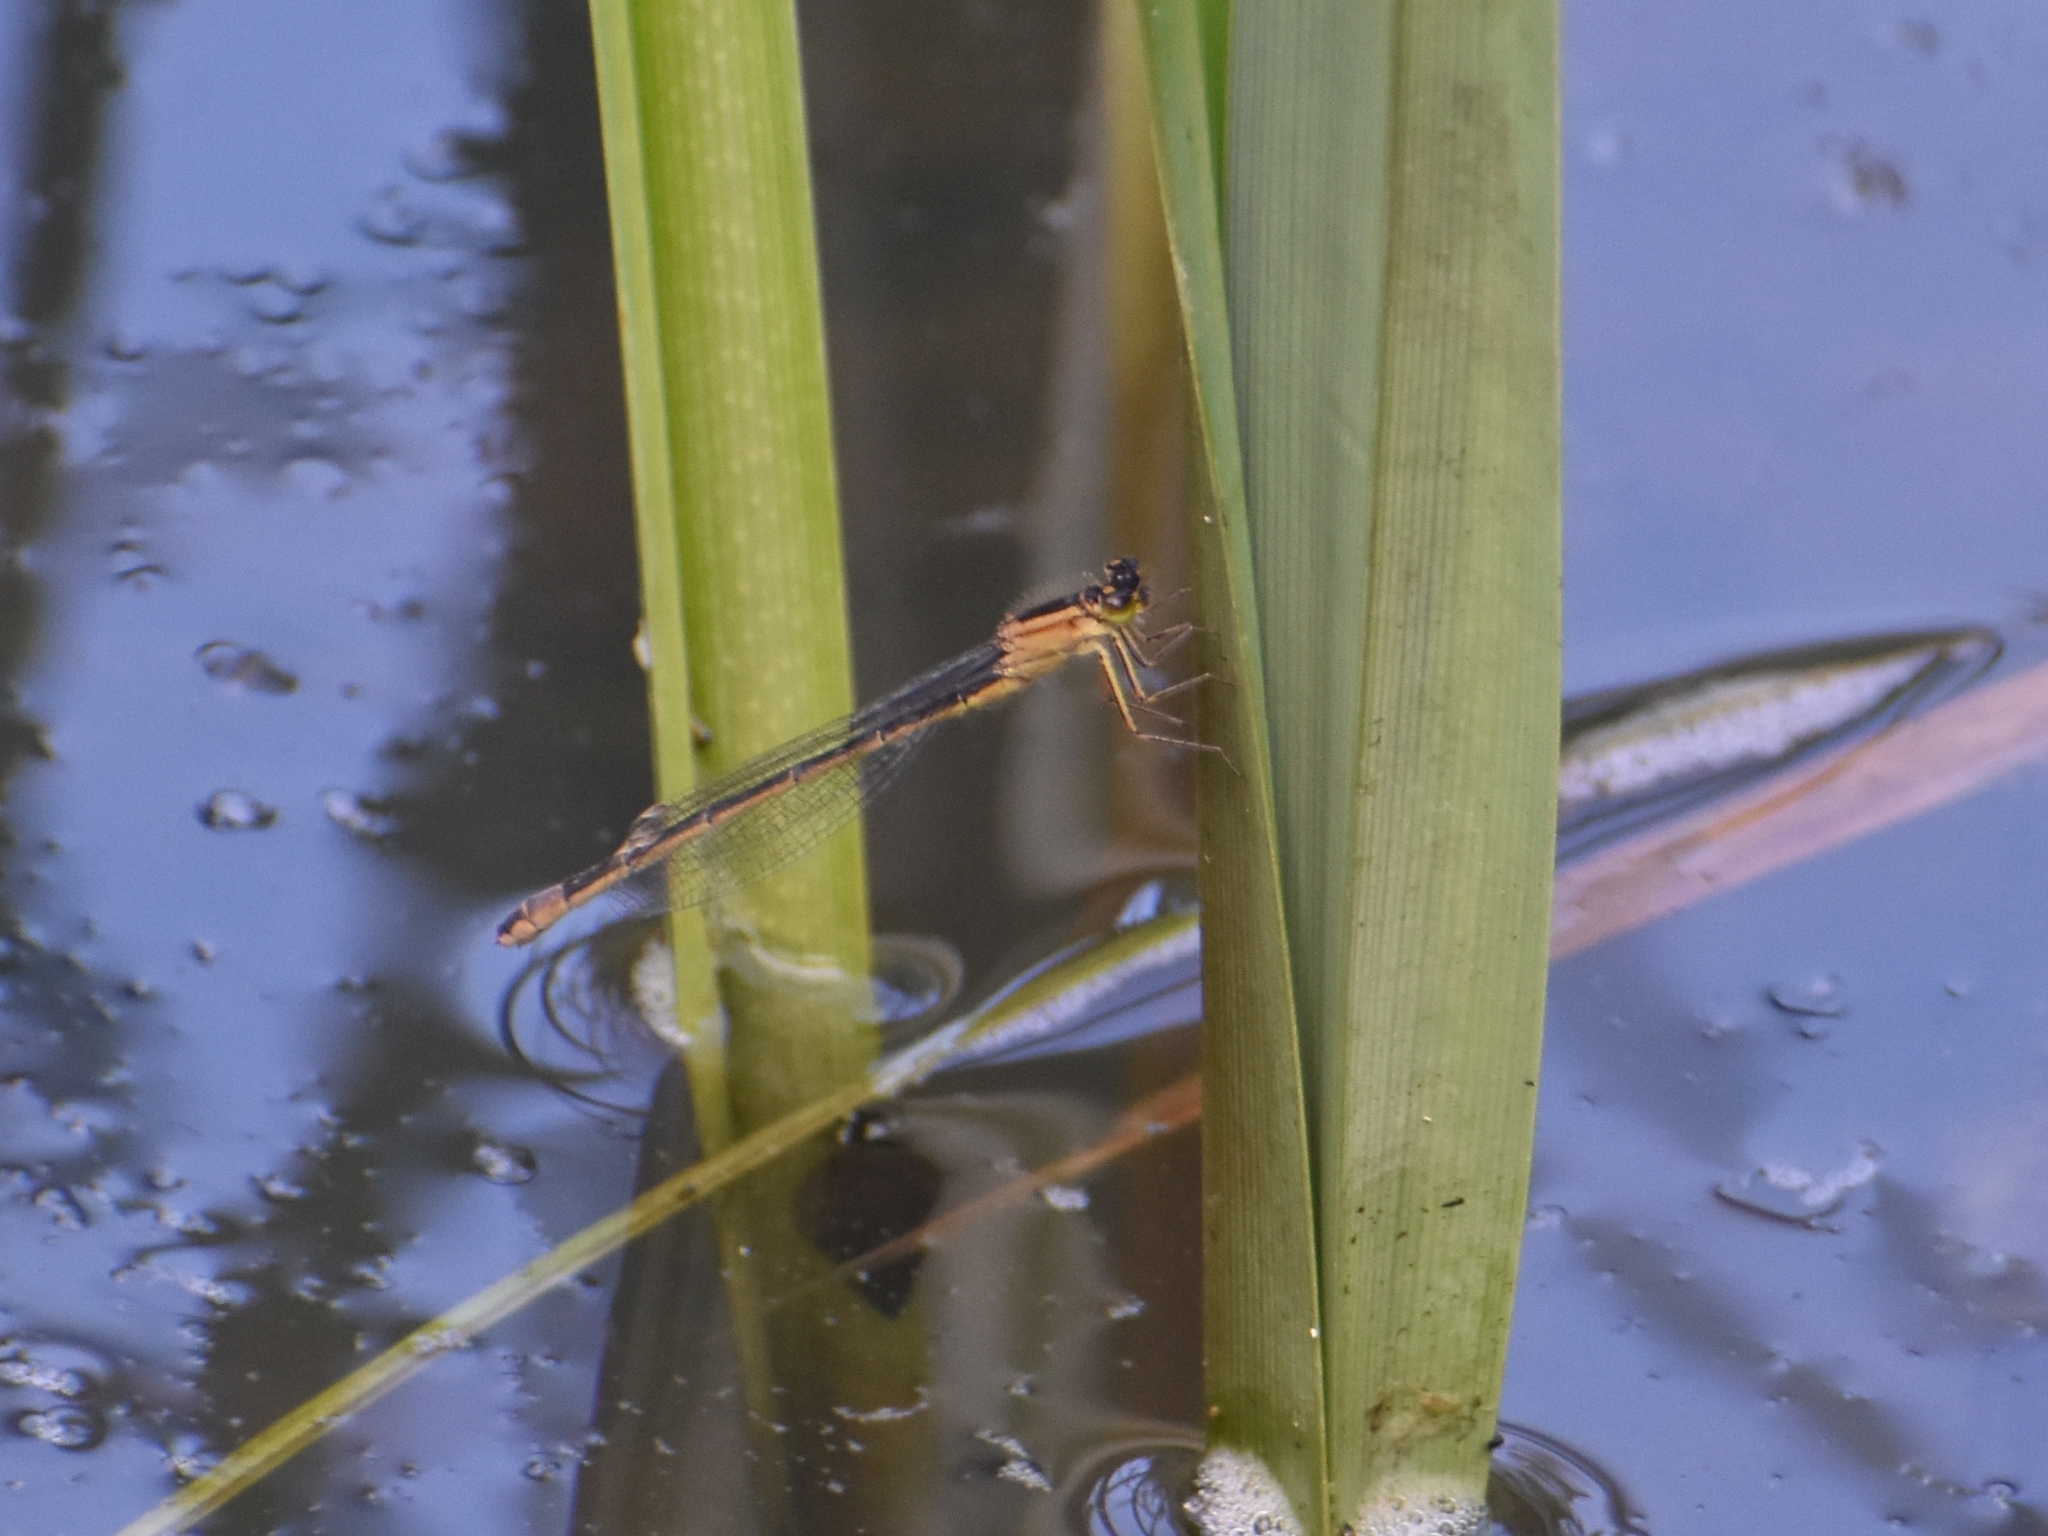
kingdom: Animalia
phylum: Arthropoda
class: Insecta
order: Odonata
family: Coenagrionidae
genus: Ischnura
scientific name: Ischnura elegans
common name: Blue-tailed damselfly
